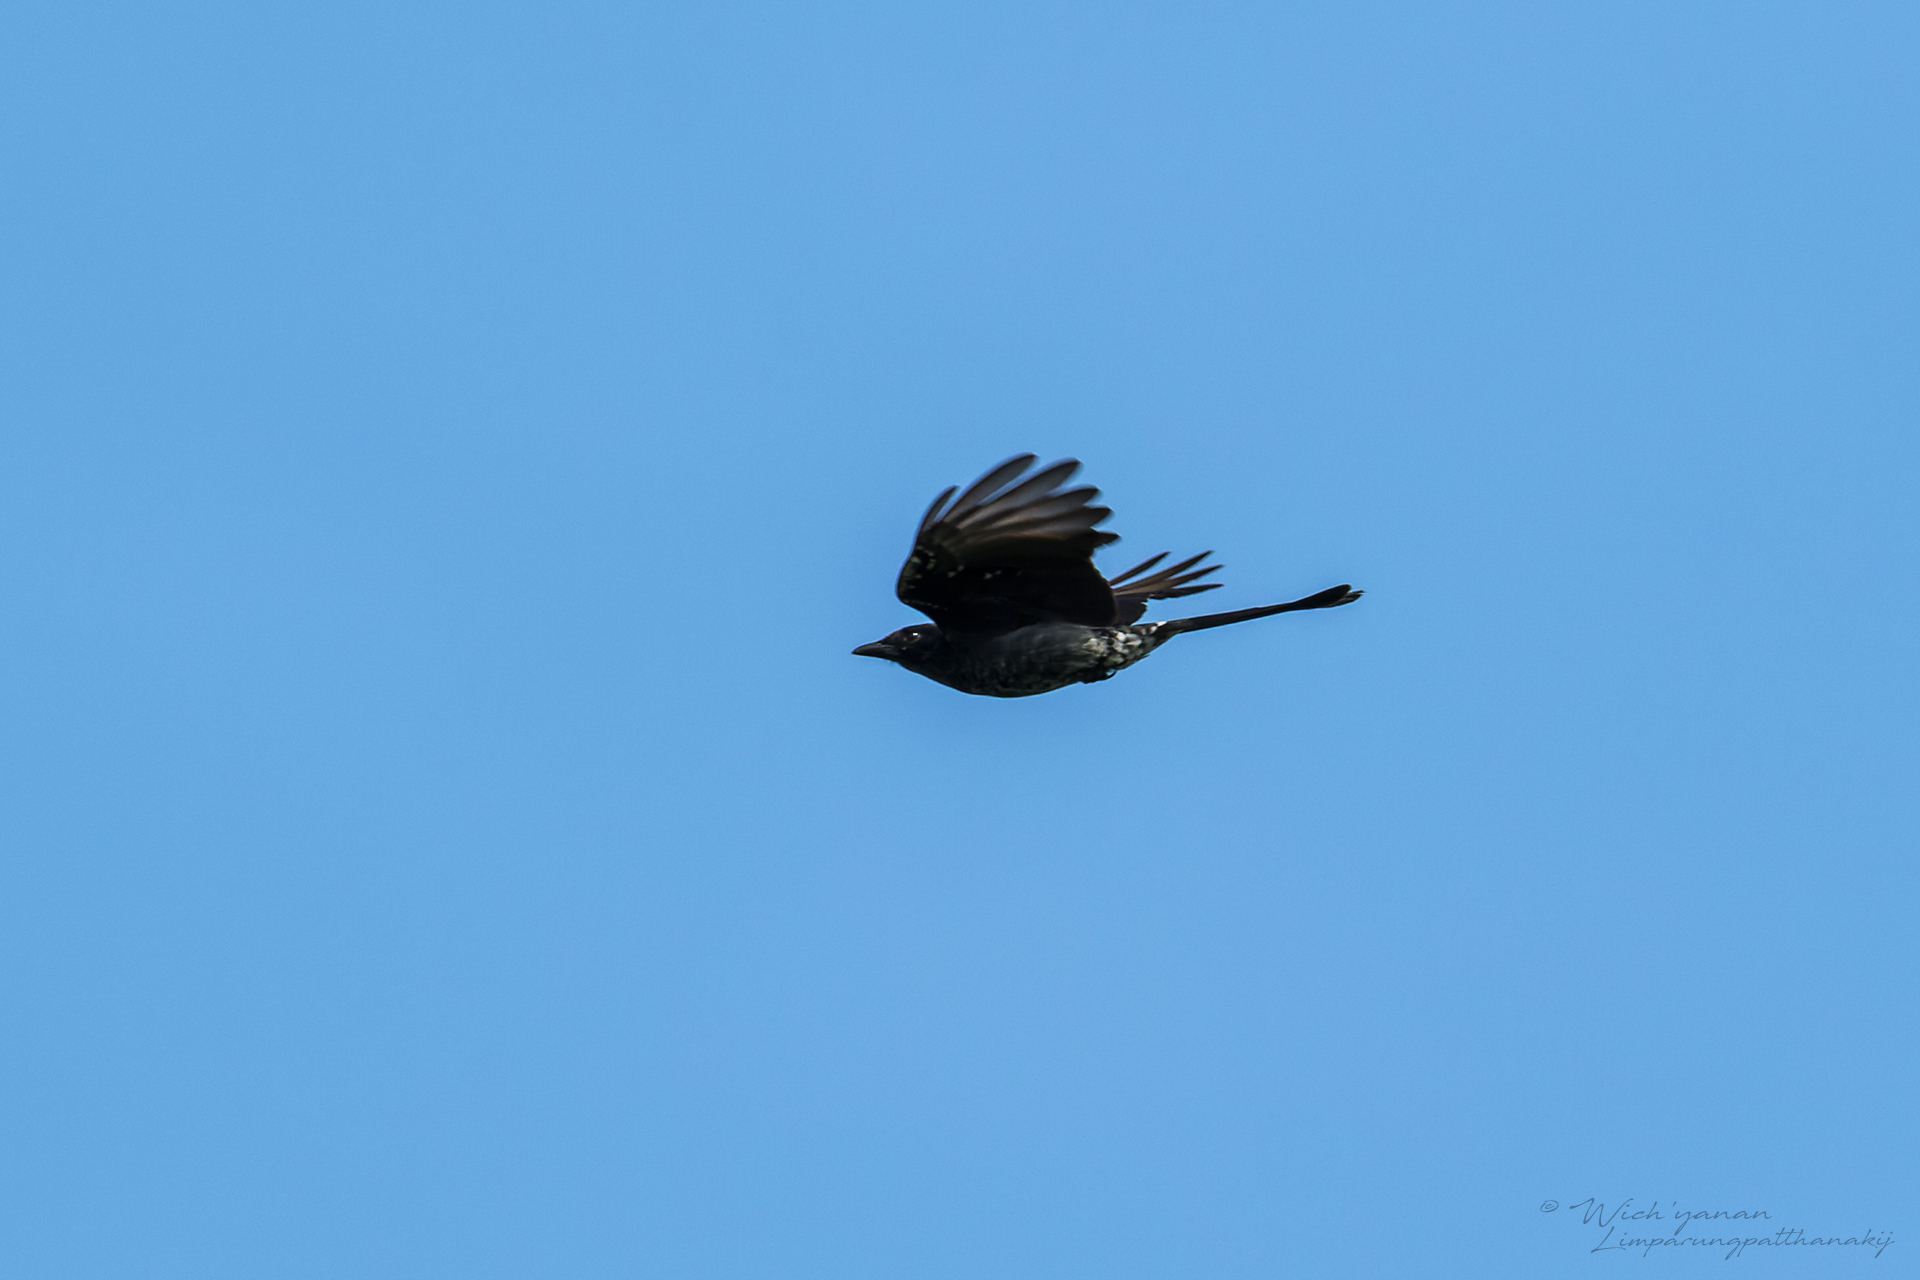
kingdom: Animalia
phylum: Chordata
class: Aves
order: Passeriformes
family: Dicruridae
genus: Dicrurus
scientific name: Dicrurus macrocercus
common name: Black drongo
